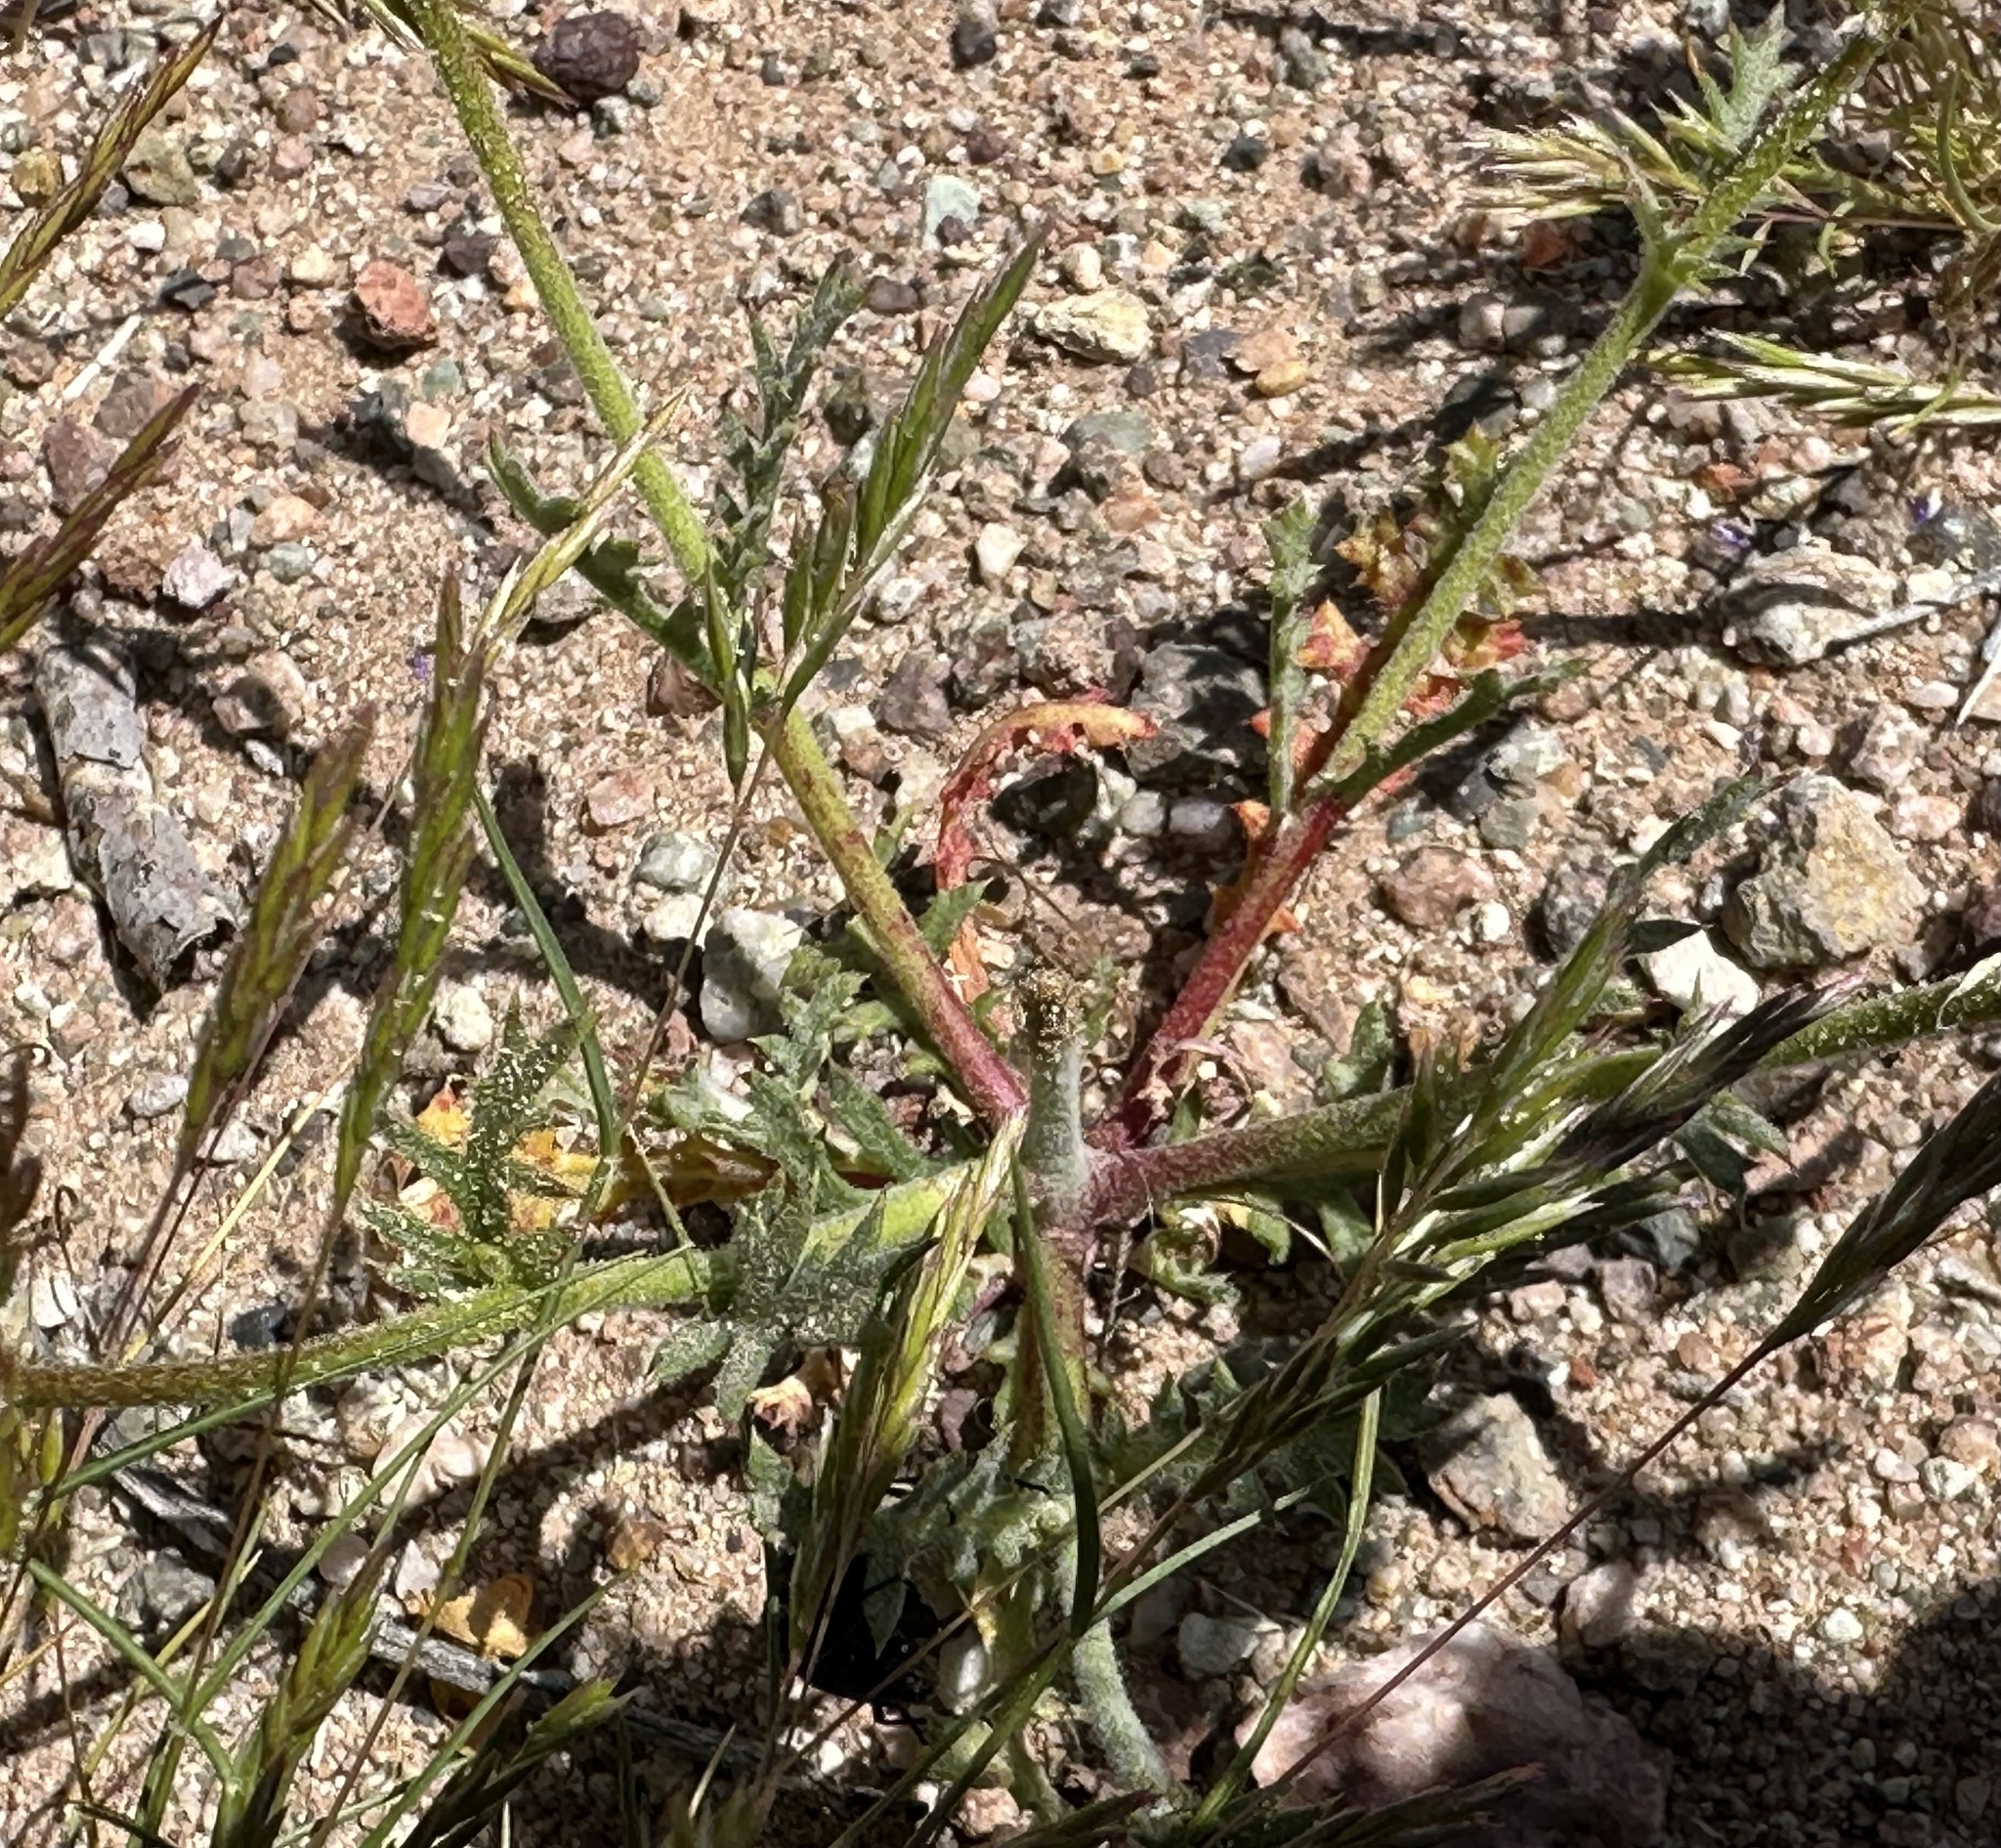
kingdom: Plantae
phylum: Tracheophyta
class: Magnoliopsida
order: Ericales
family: Polemoniaceae
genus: Gilia
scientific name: Gilia cana
